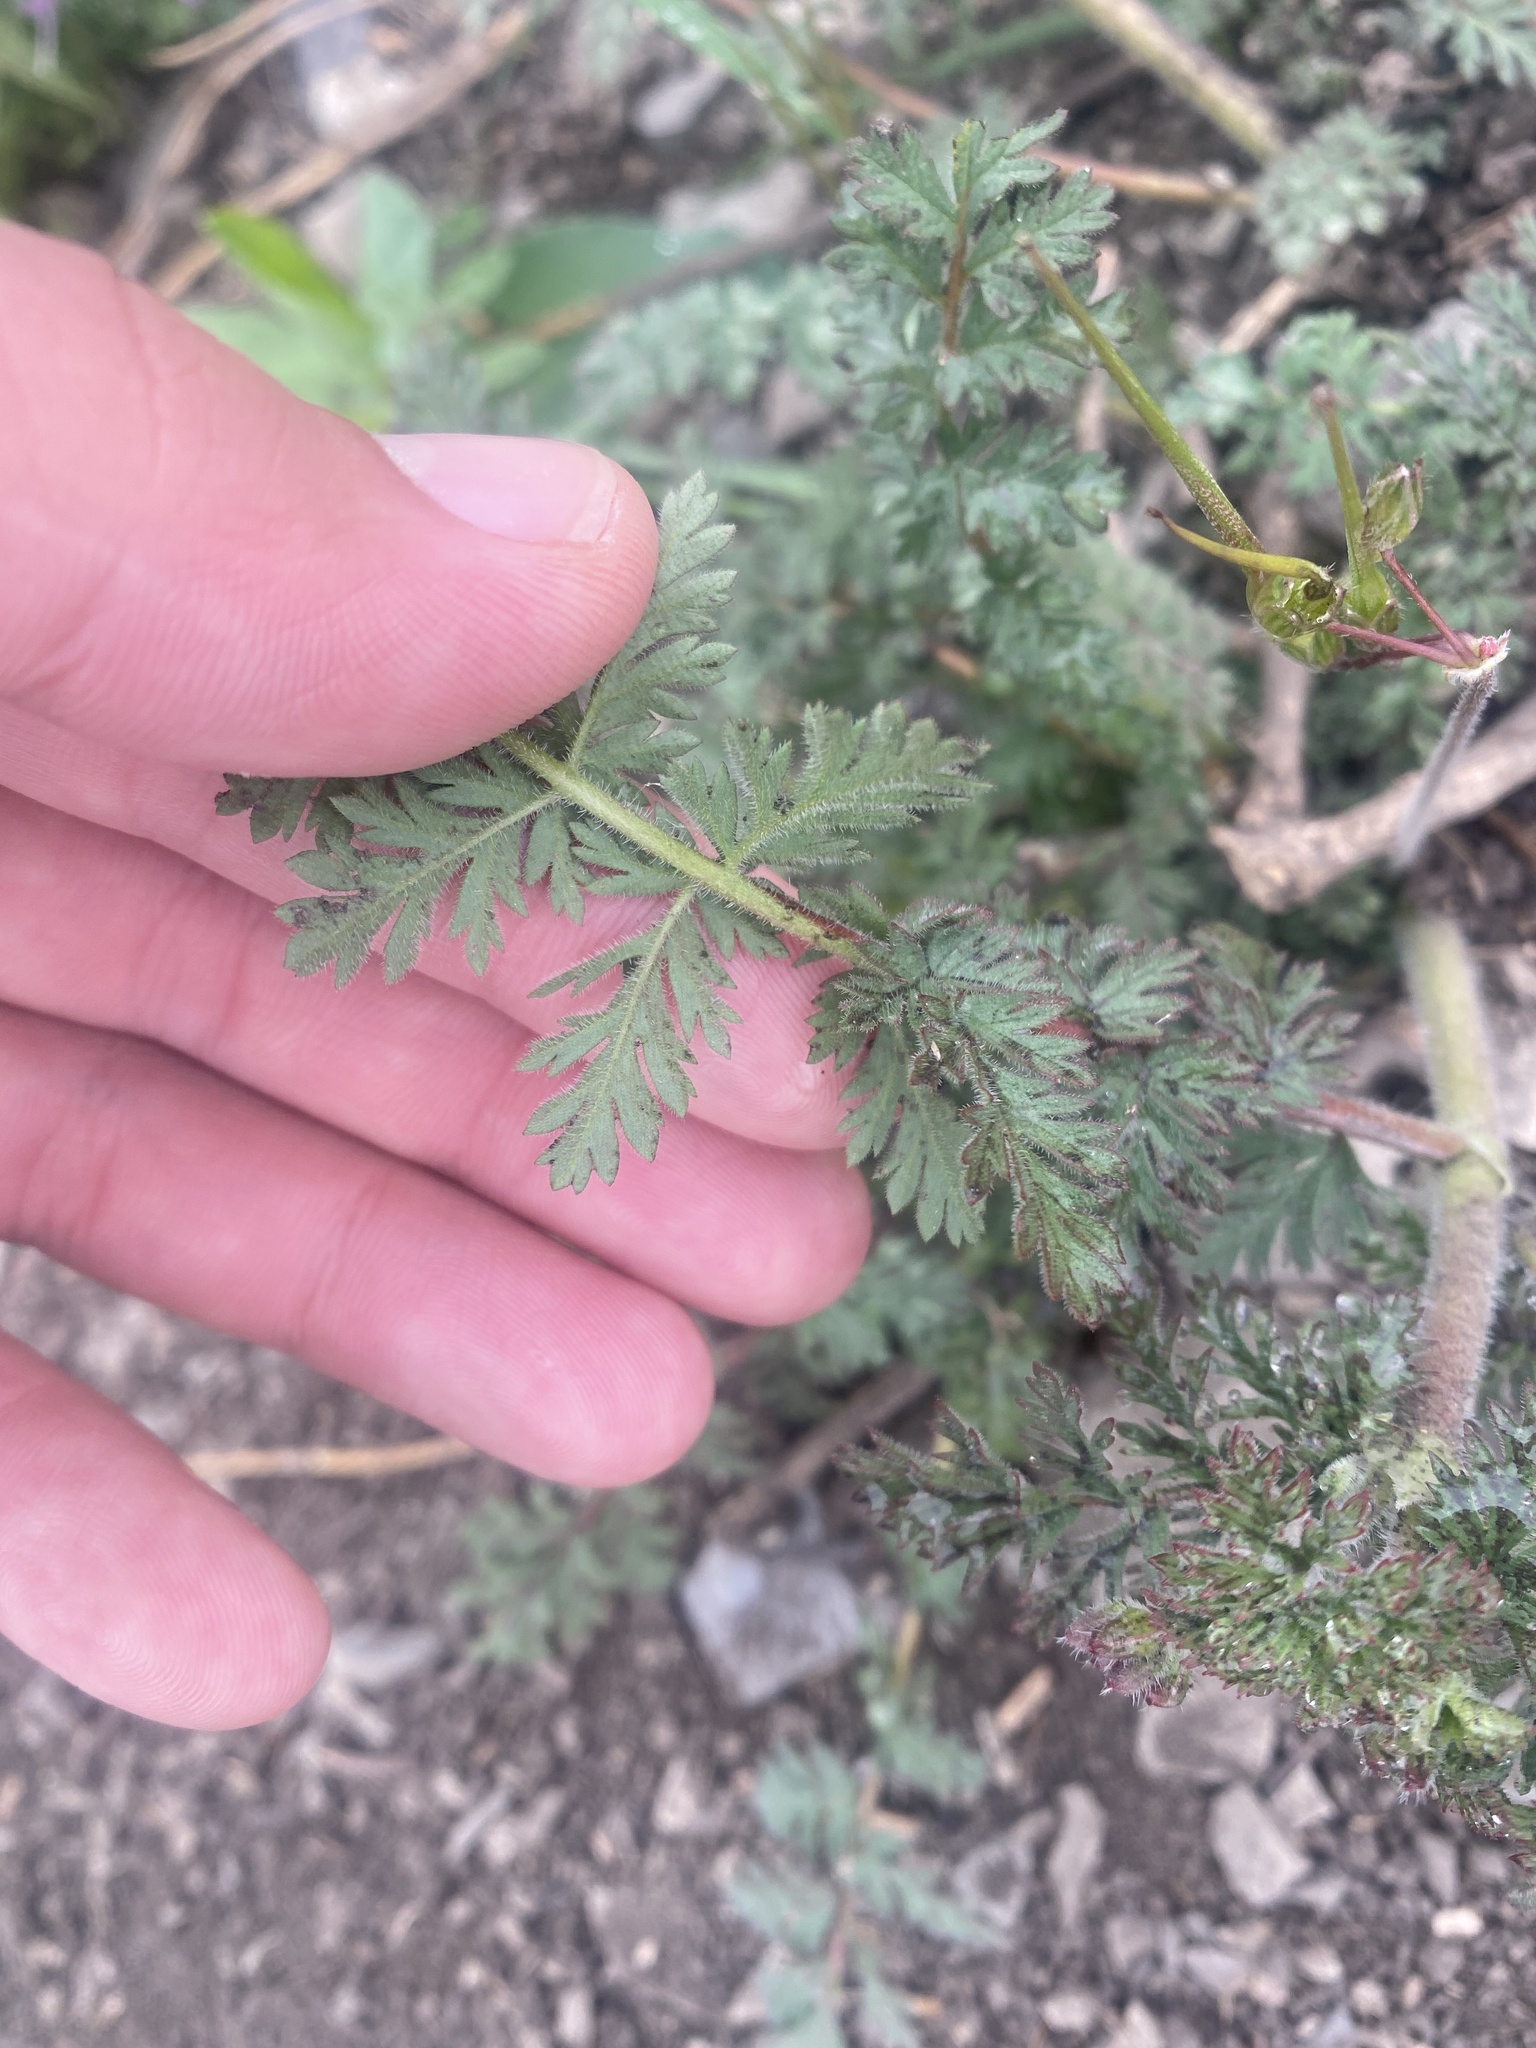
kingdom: Plantae
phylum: Tracheophyta
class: Magnoliopsida
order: Geraniales
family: Geraniaceae
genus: Erodium
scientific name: Erodium cicutarium
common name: Common stork's-bill
